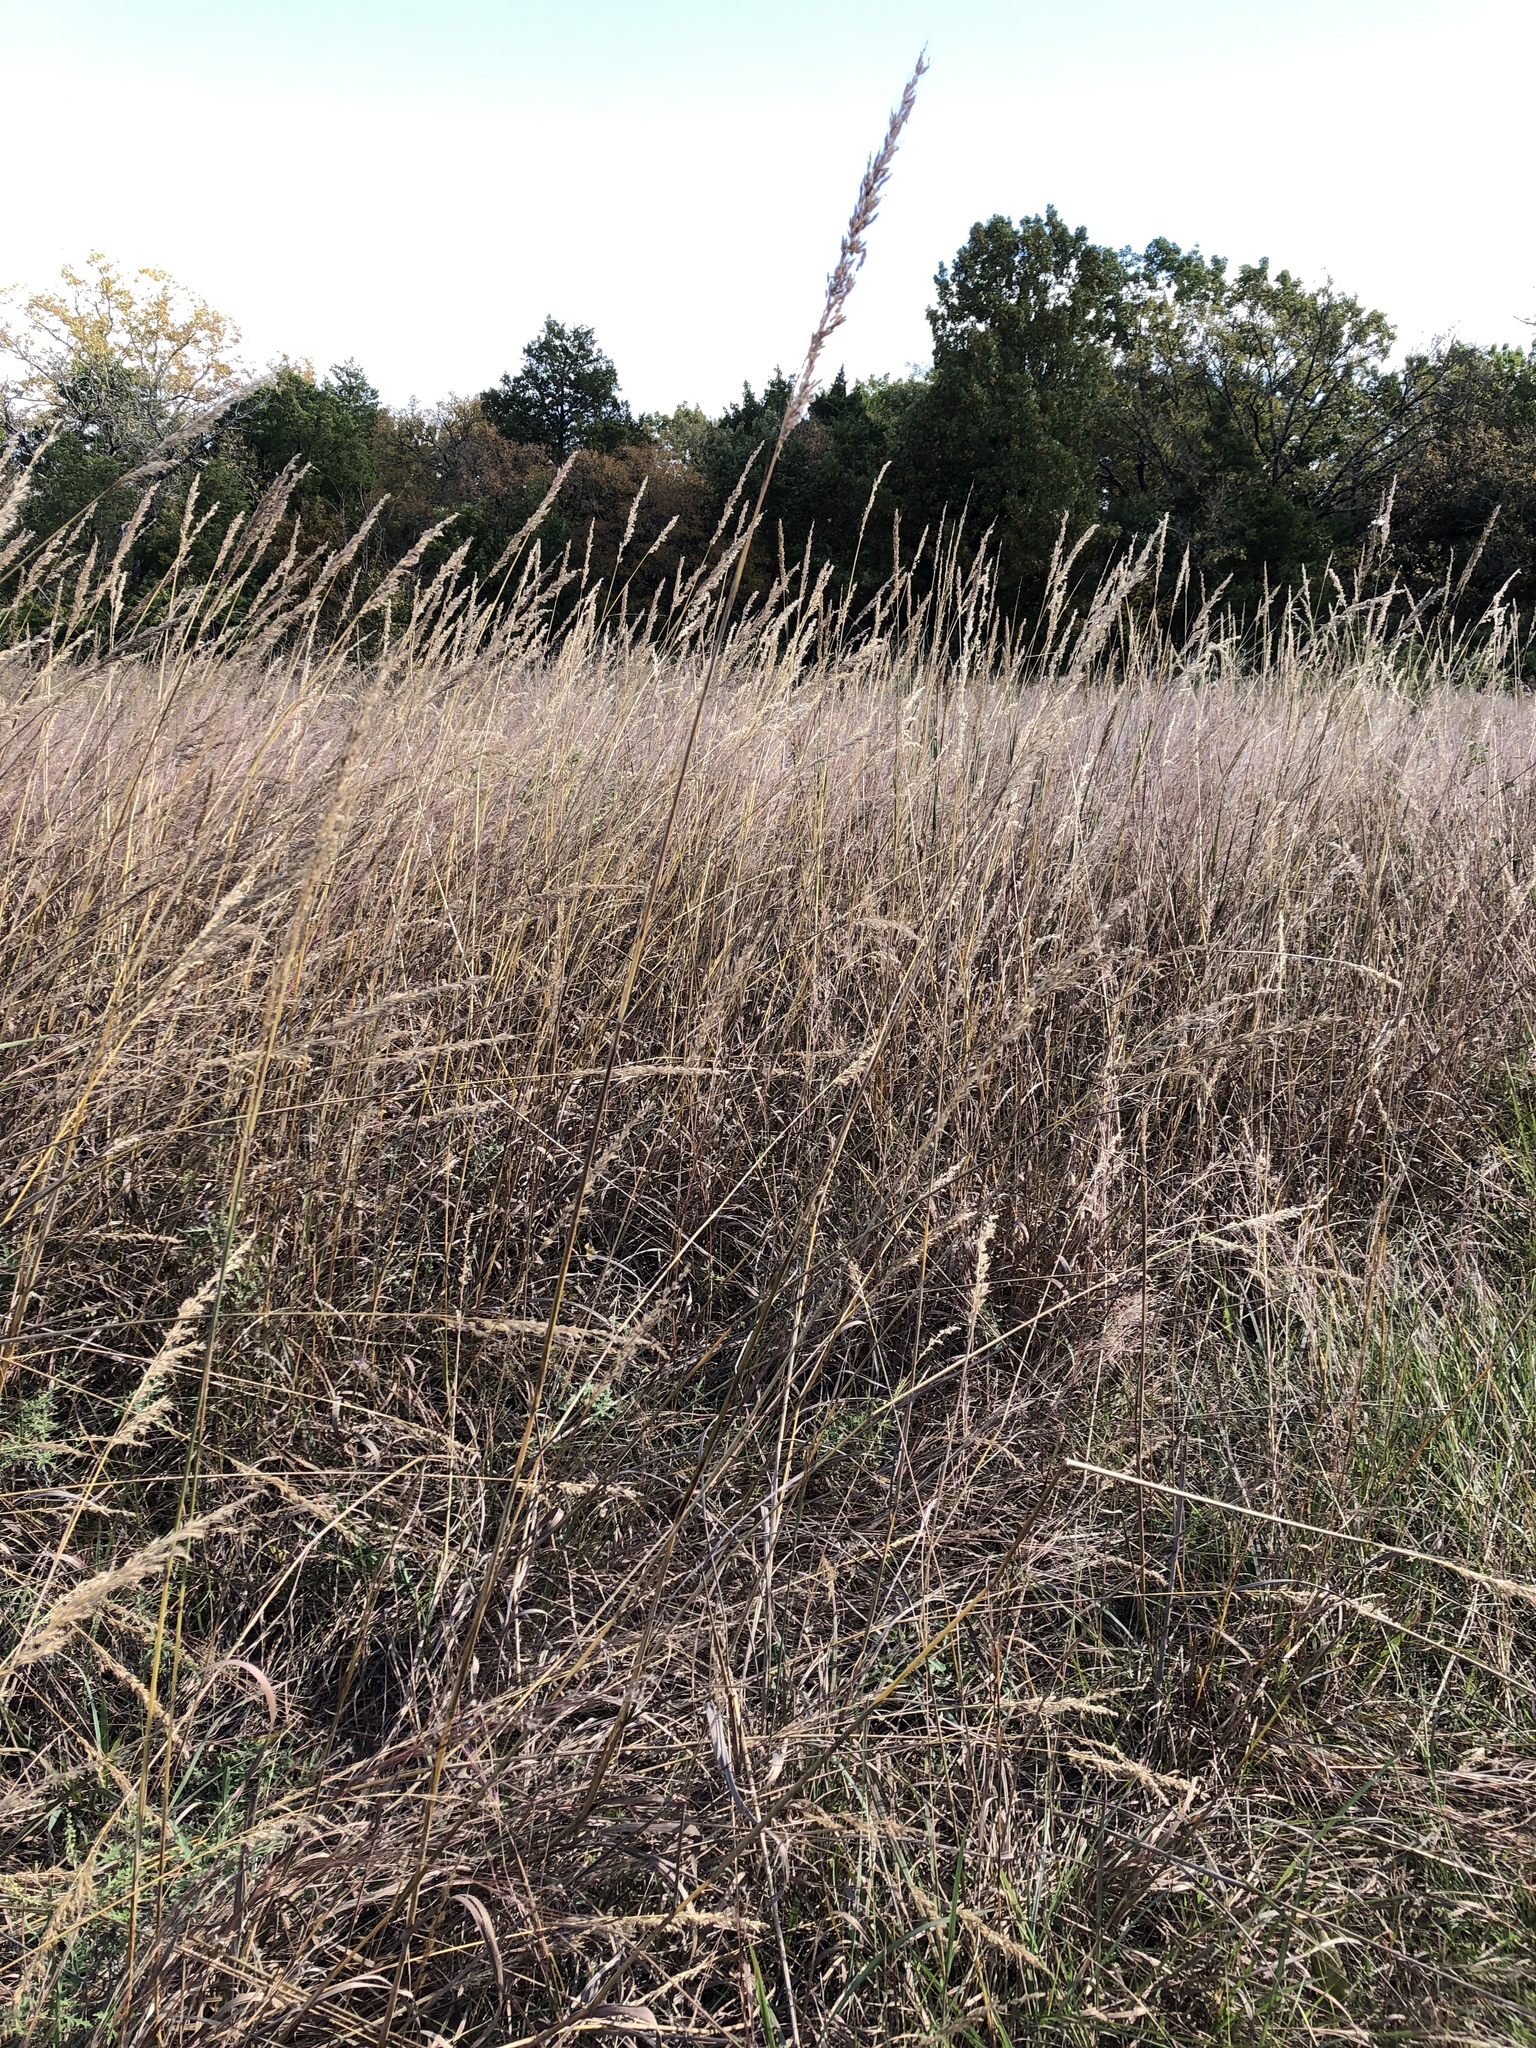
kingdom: Plantae
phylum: Tracheophyta
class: Liliopsida
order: Poales
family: Poaceae
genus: Sorghastrum
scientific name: Sorghastrum nutans
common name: Indian grass
